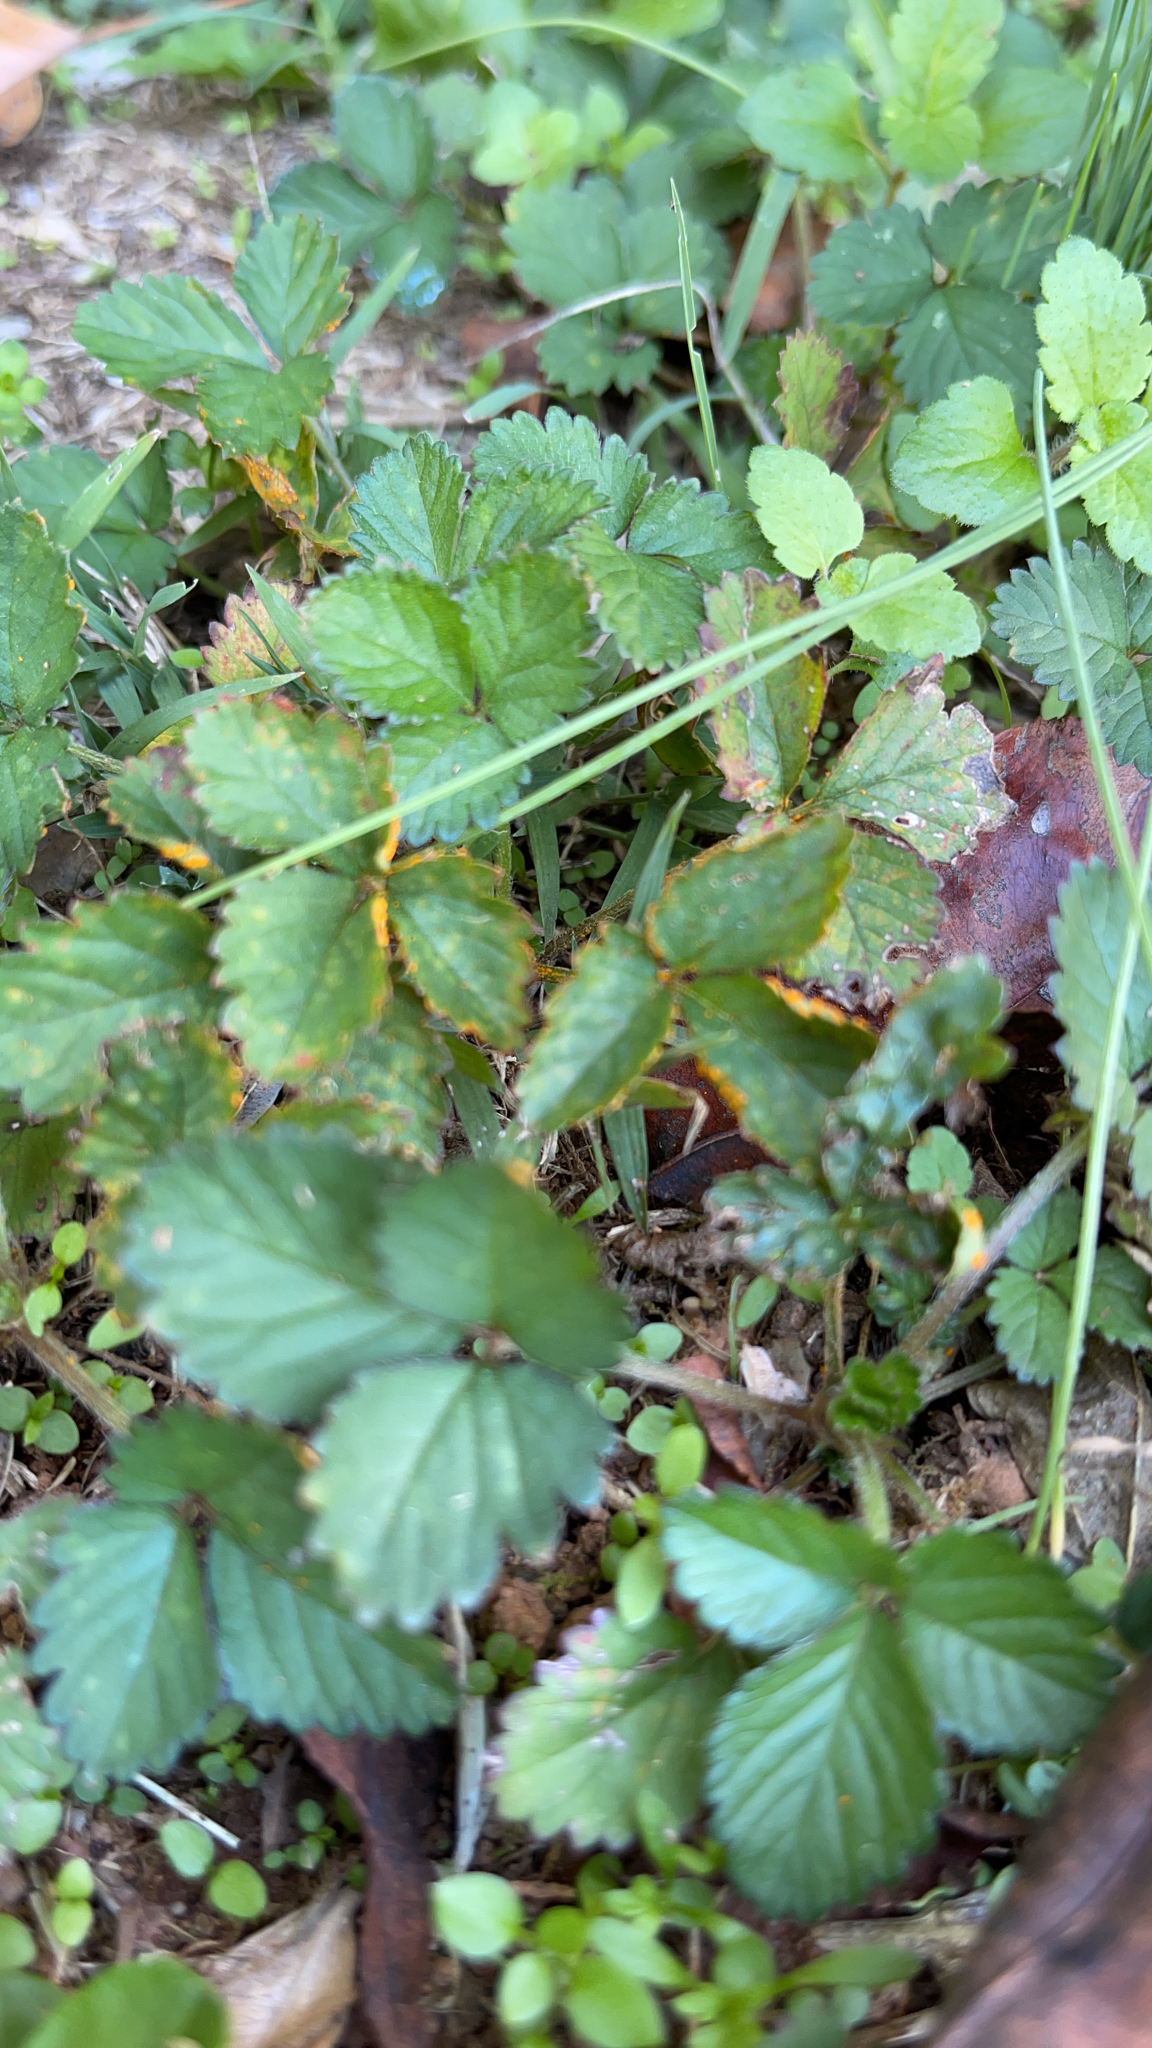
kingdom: Plantae
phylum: Tracheophyta
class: Magnoliopsida
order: Rosales
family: Rosaceae
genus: Potentilla
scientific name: Potentilla indica
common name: Yellow-flowered strawberry
